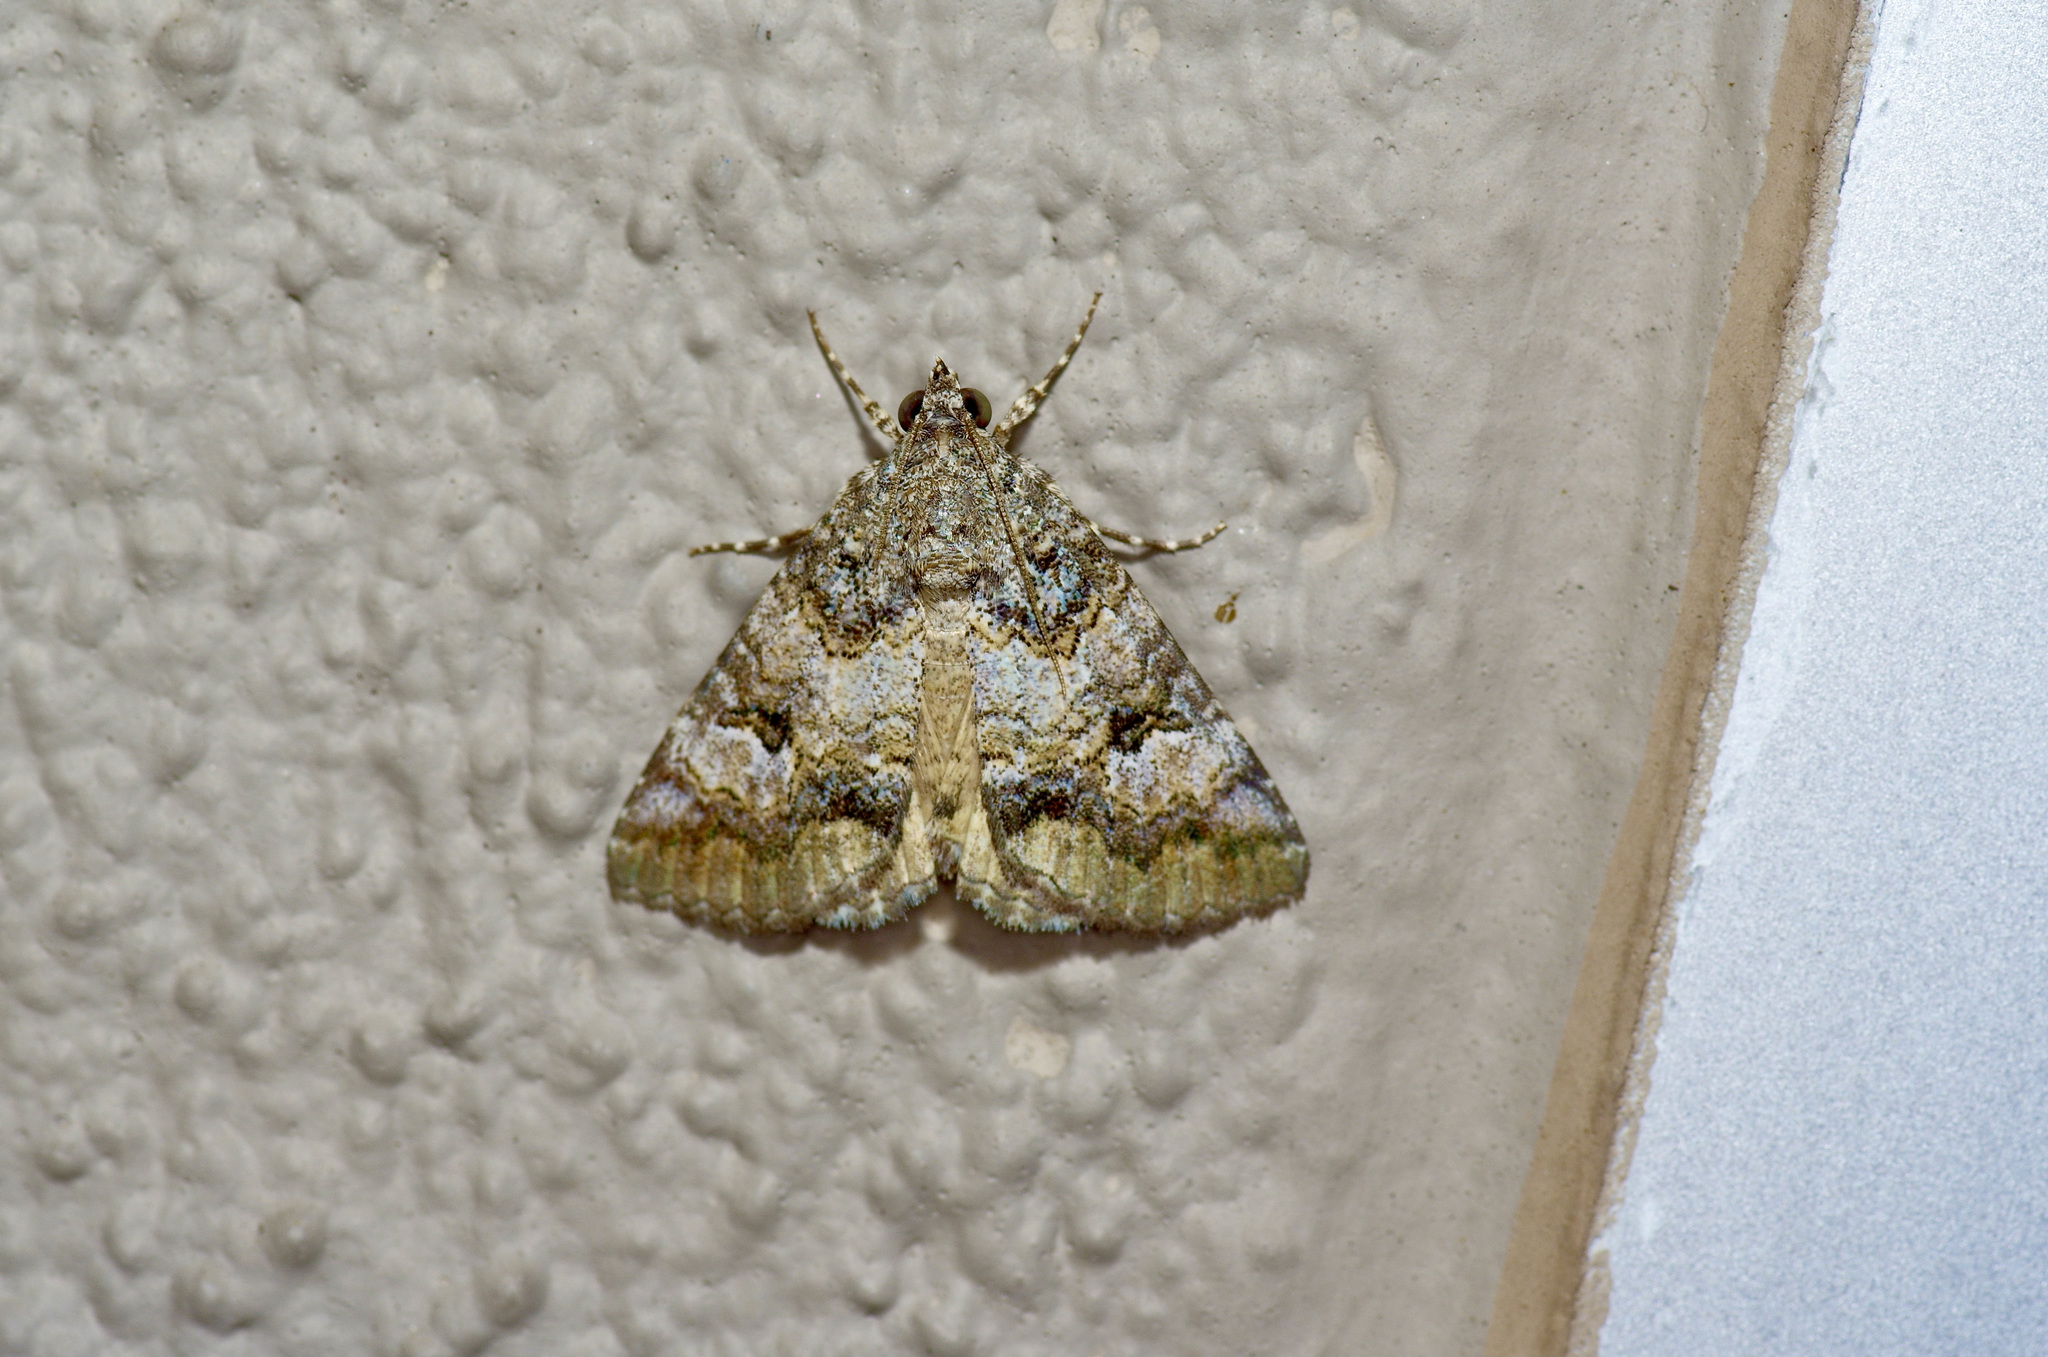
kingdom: Animalia
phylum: Arthropoda
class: Insecta
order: Lepidoptera
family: Erebidae
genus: Eubolina
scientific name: Eubolina impartialis
